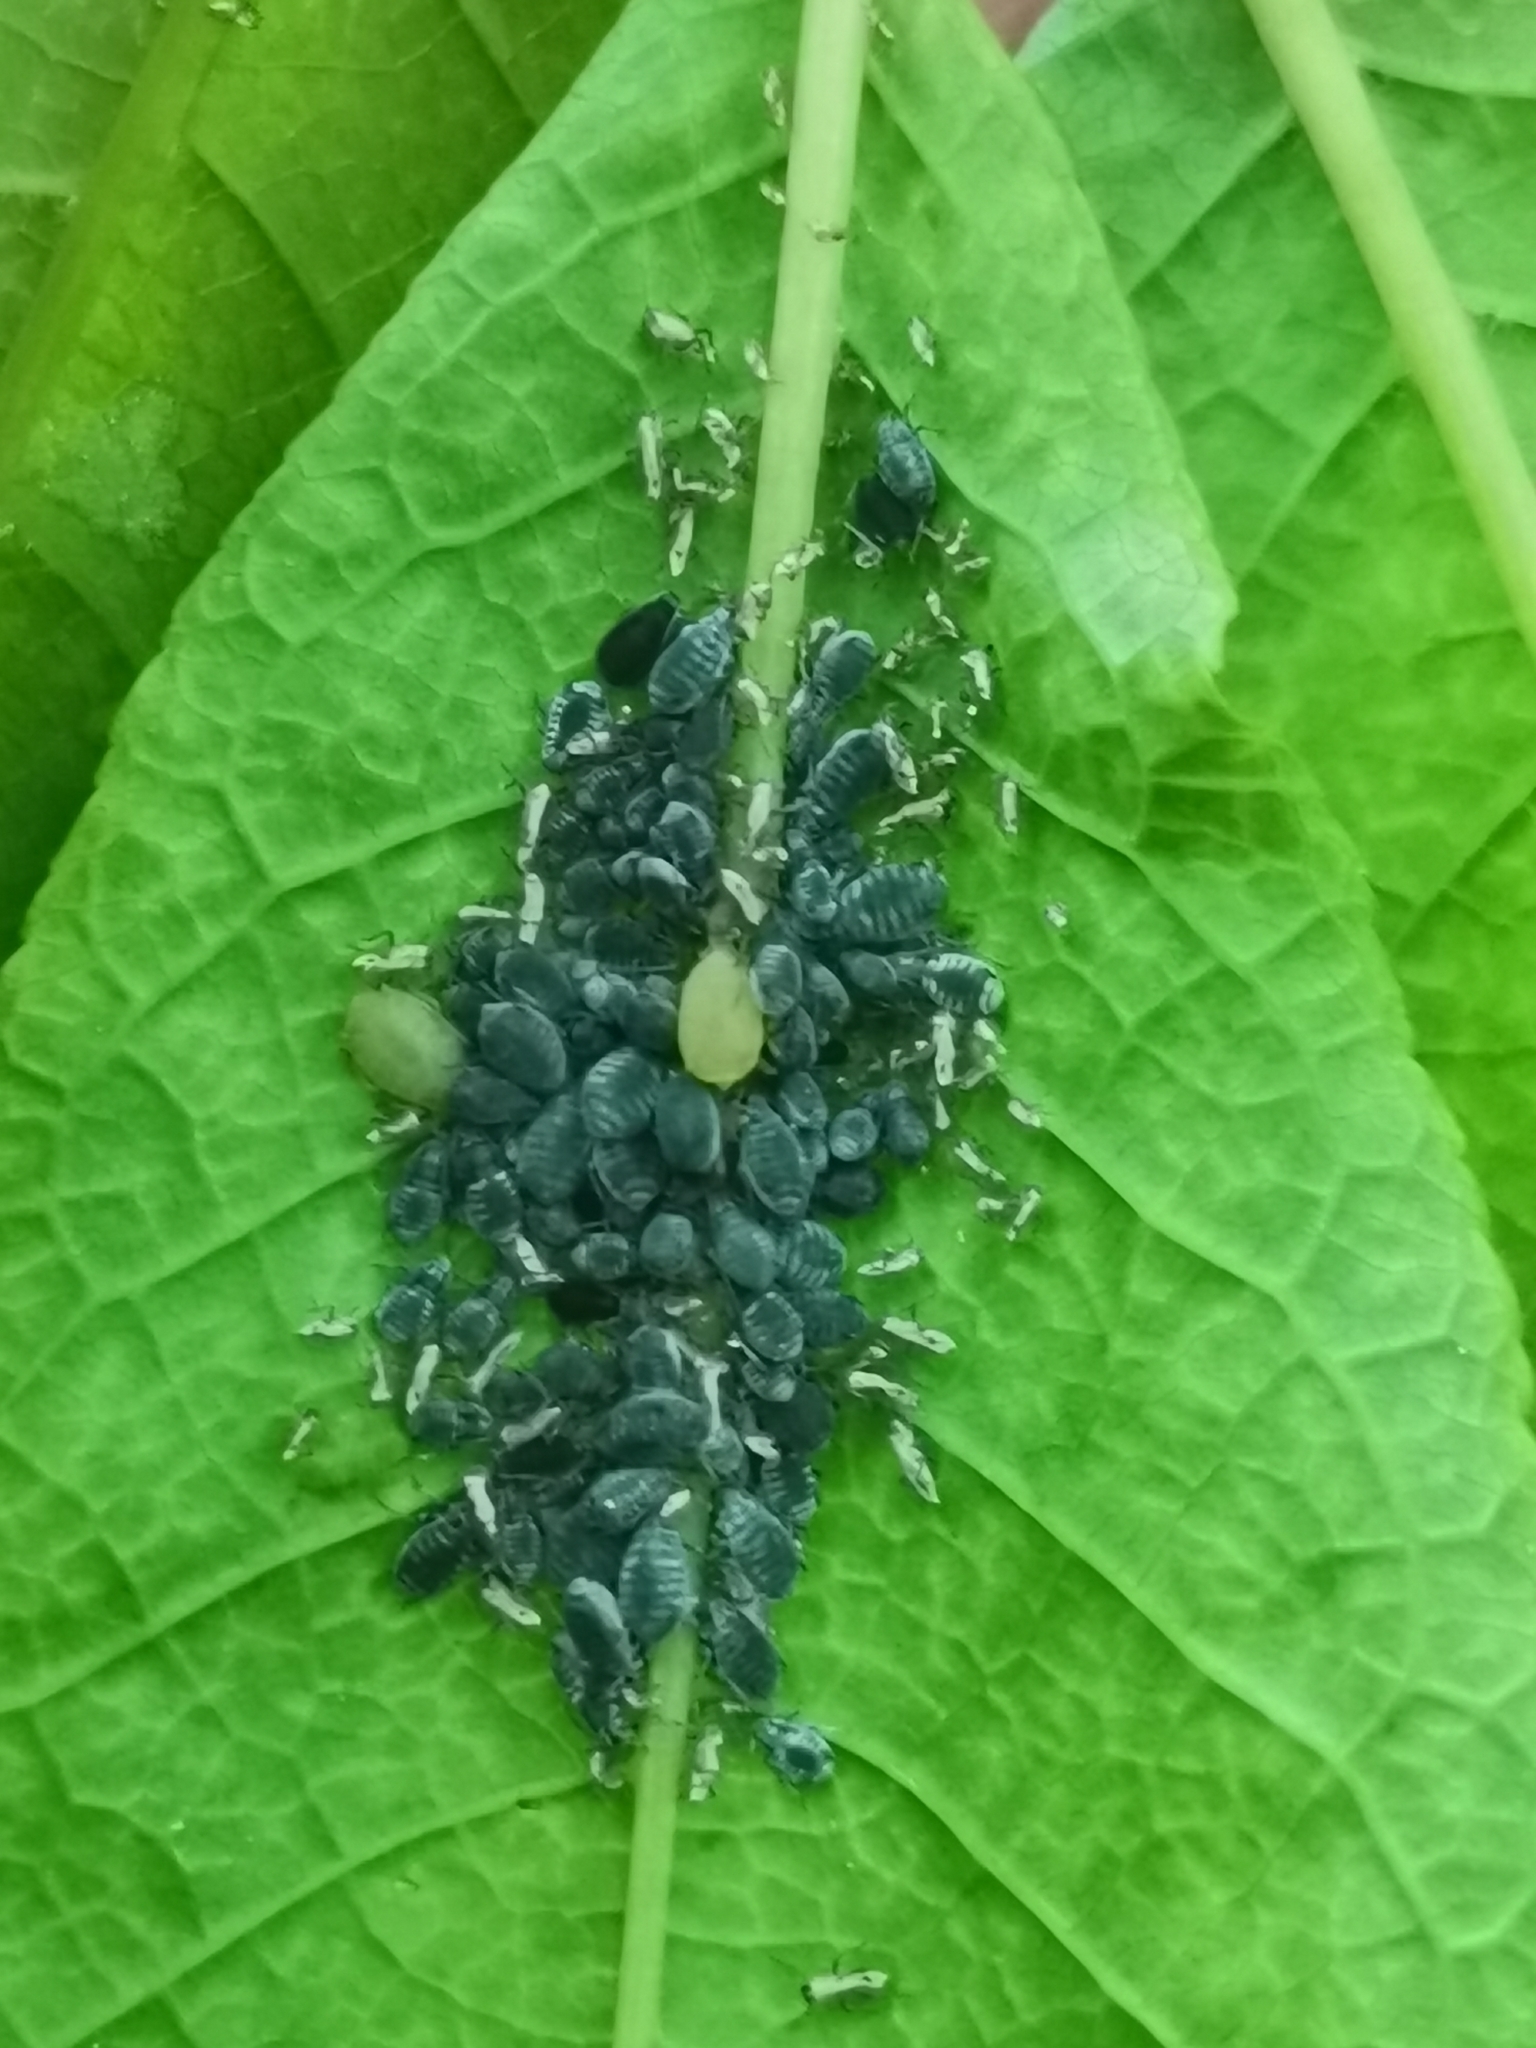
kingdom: Animalia
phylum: Arthropoda
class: Insecta
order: Hemiptera
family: Aphididae
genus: Rhopalosiphum
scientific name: Rhopalosiphum padi
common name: Oat-birdcherry aphid
